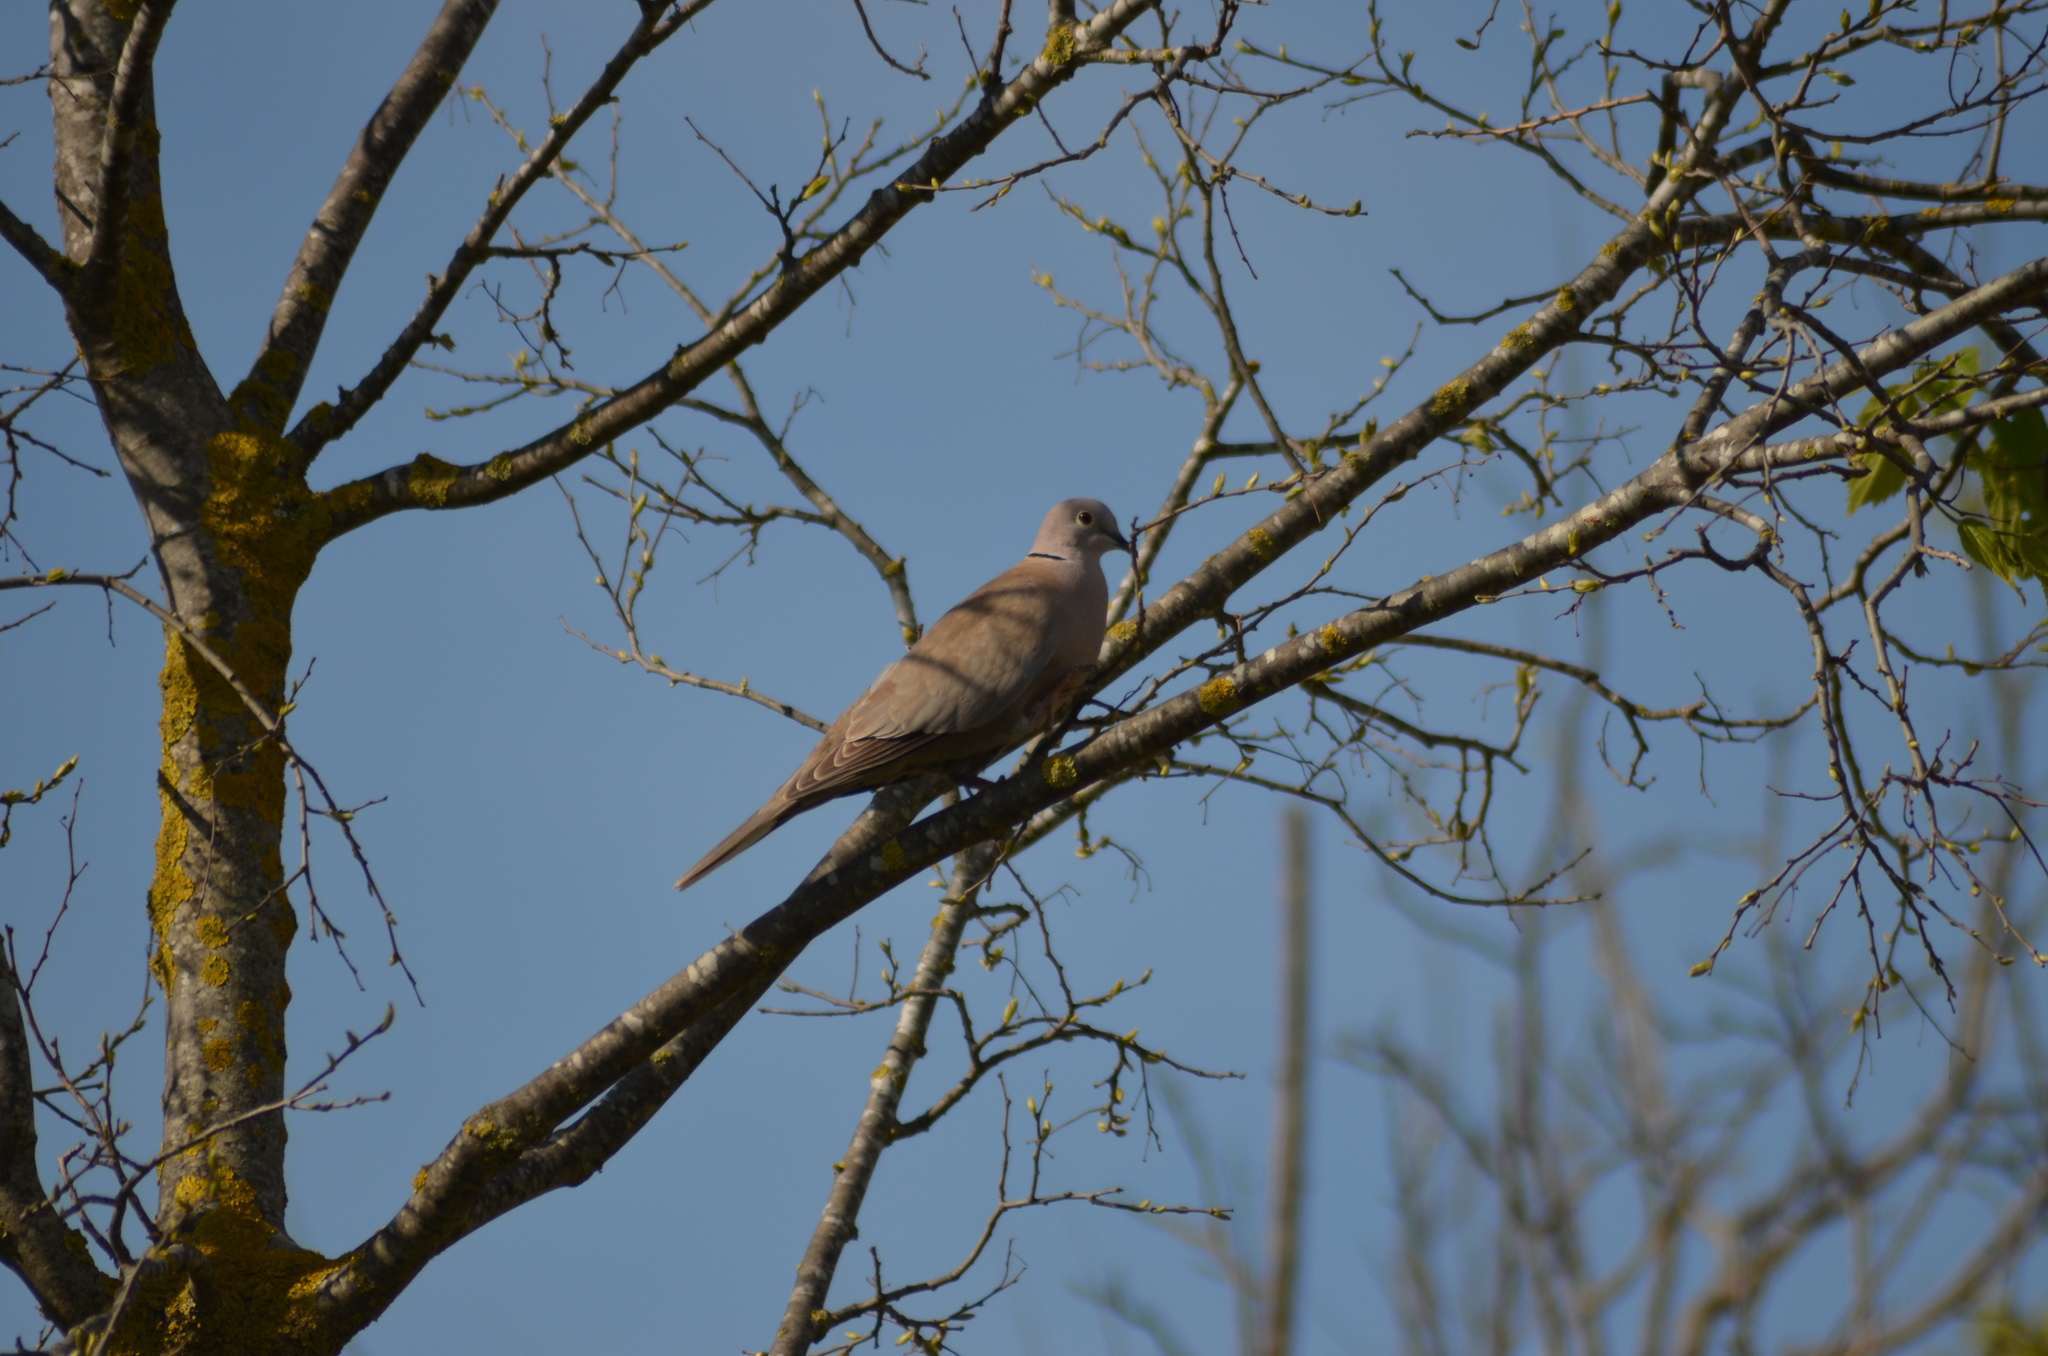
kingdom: Animalia
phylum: Chordata
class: Aves
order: Columbiformes
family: Columbidae
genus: Streptopelia
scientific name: Streptopelia decaocto
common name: Eurasian collared dove
